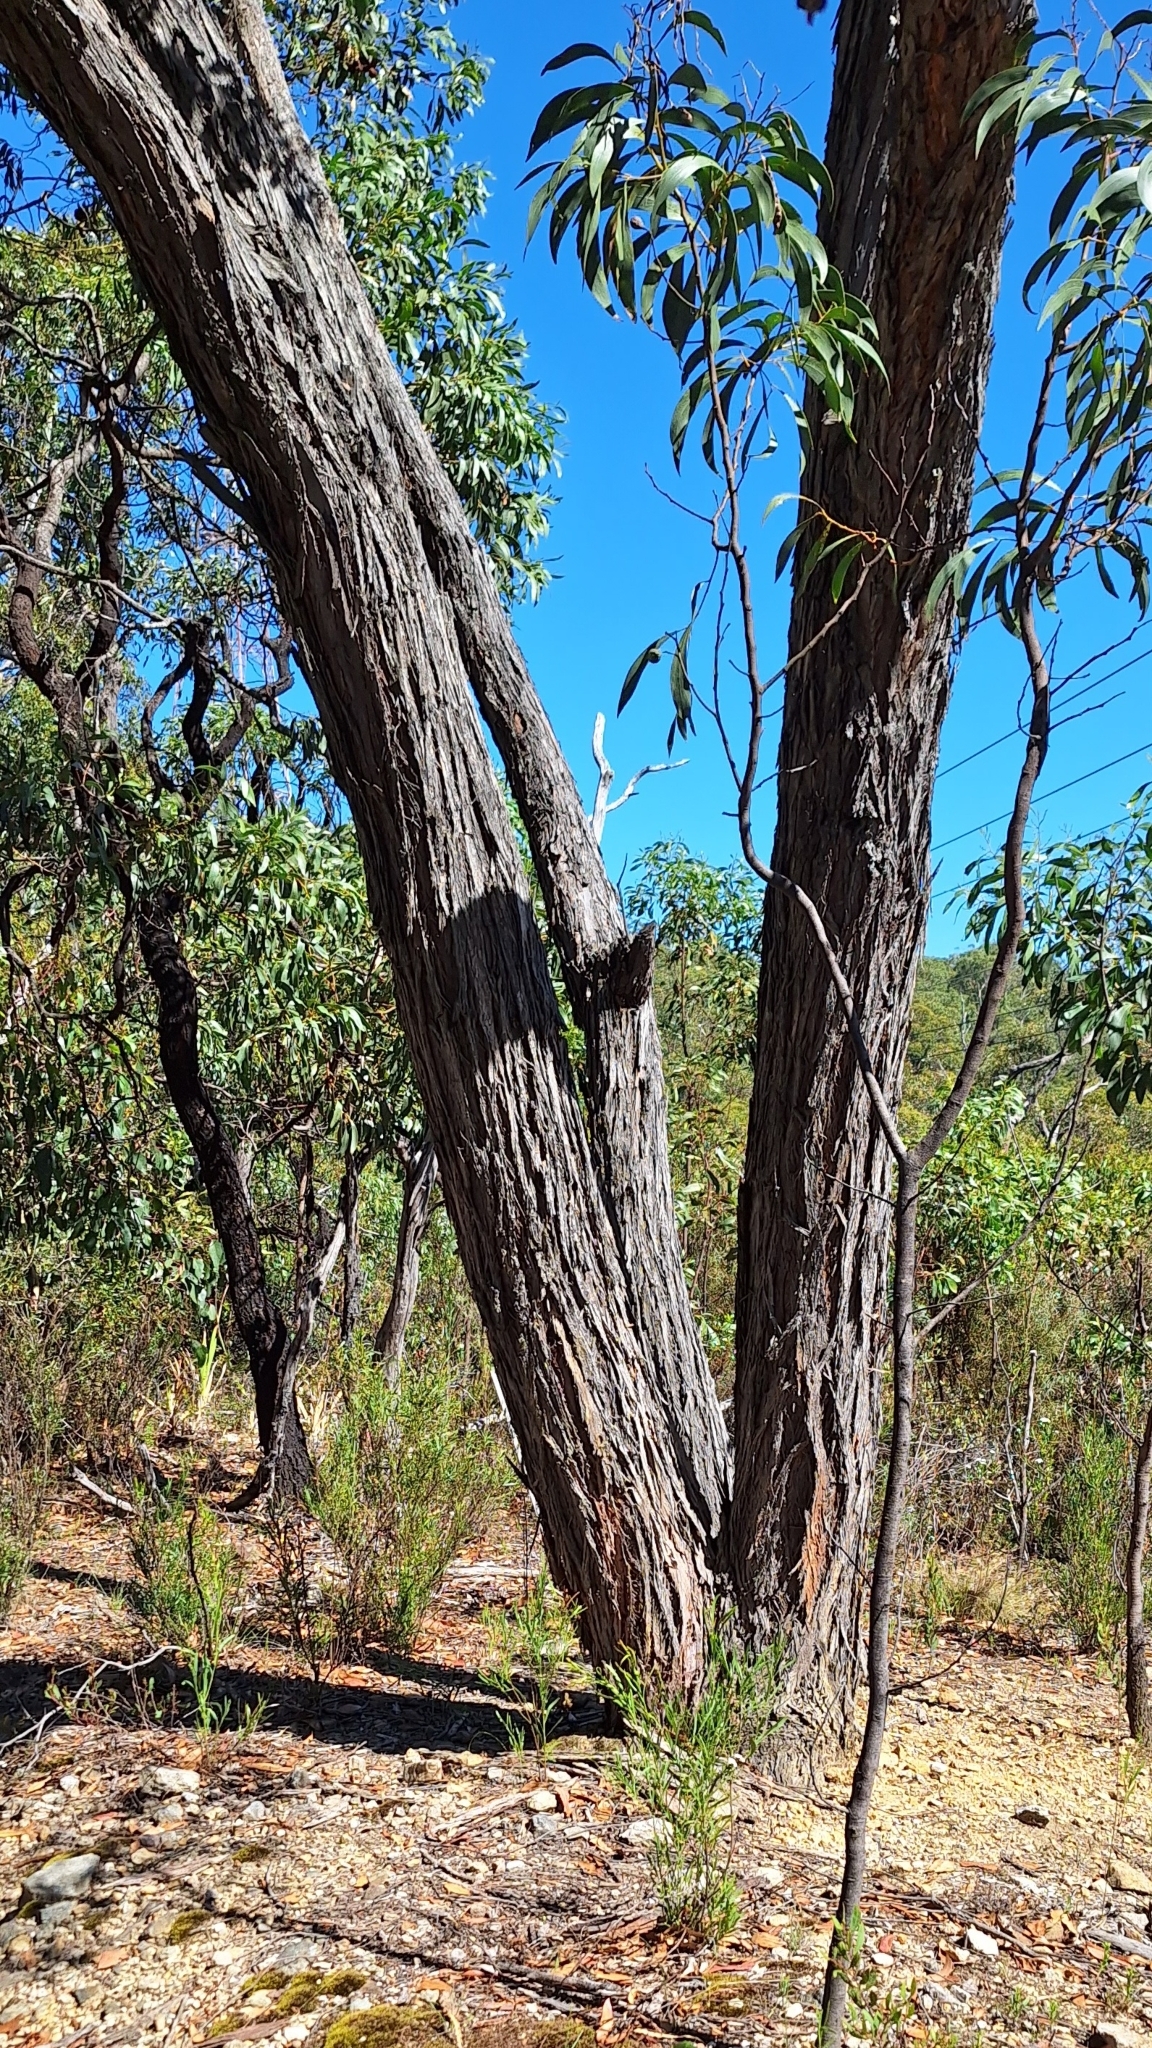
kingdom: Plantae
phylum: Tracheophyta
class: Magnoliopsida
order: Myrtales
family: Myrtaceae
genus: Eucalyptus
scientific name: Eucalyptus baxteri
